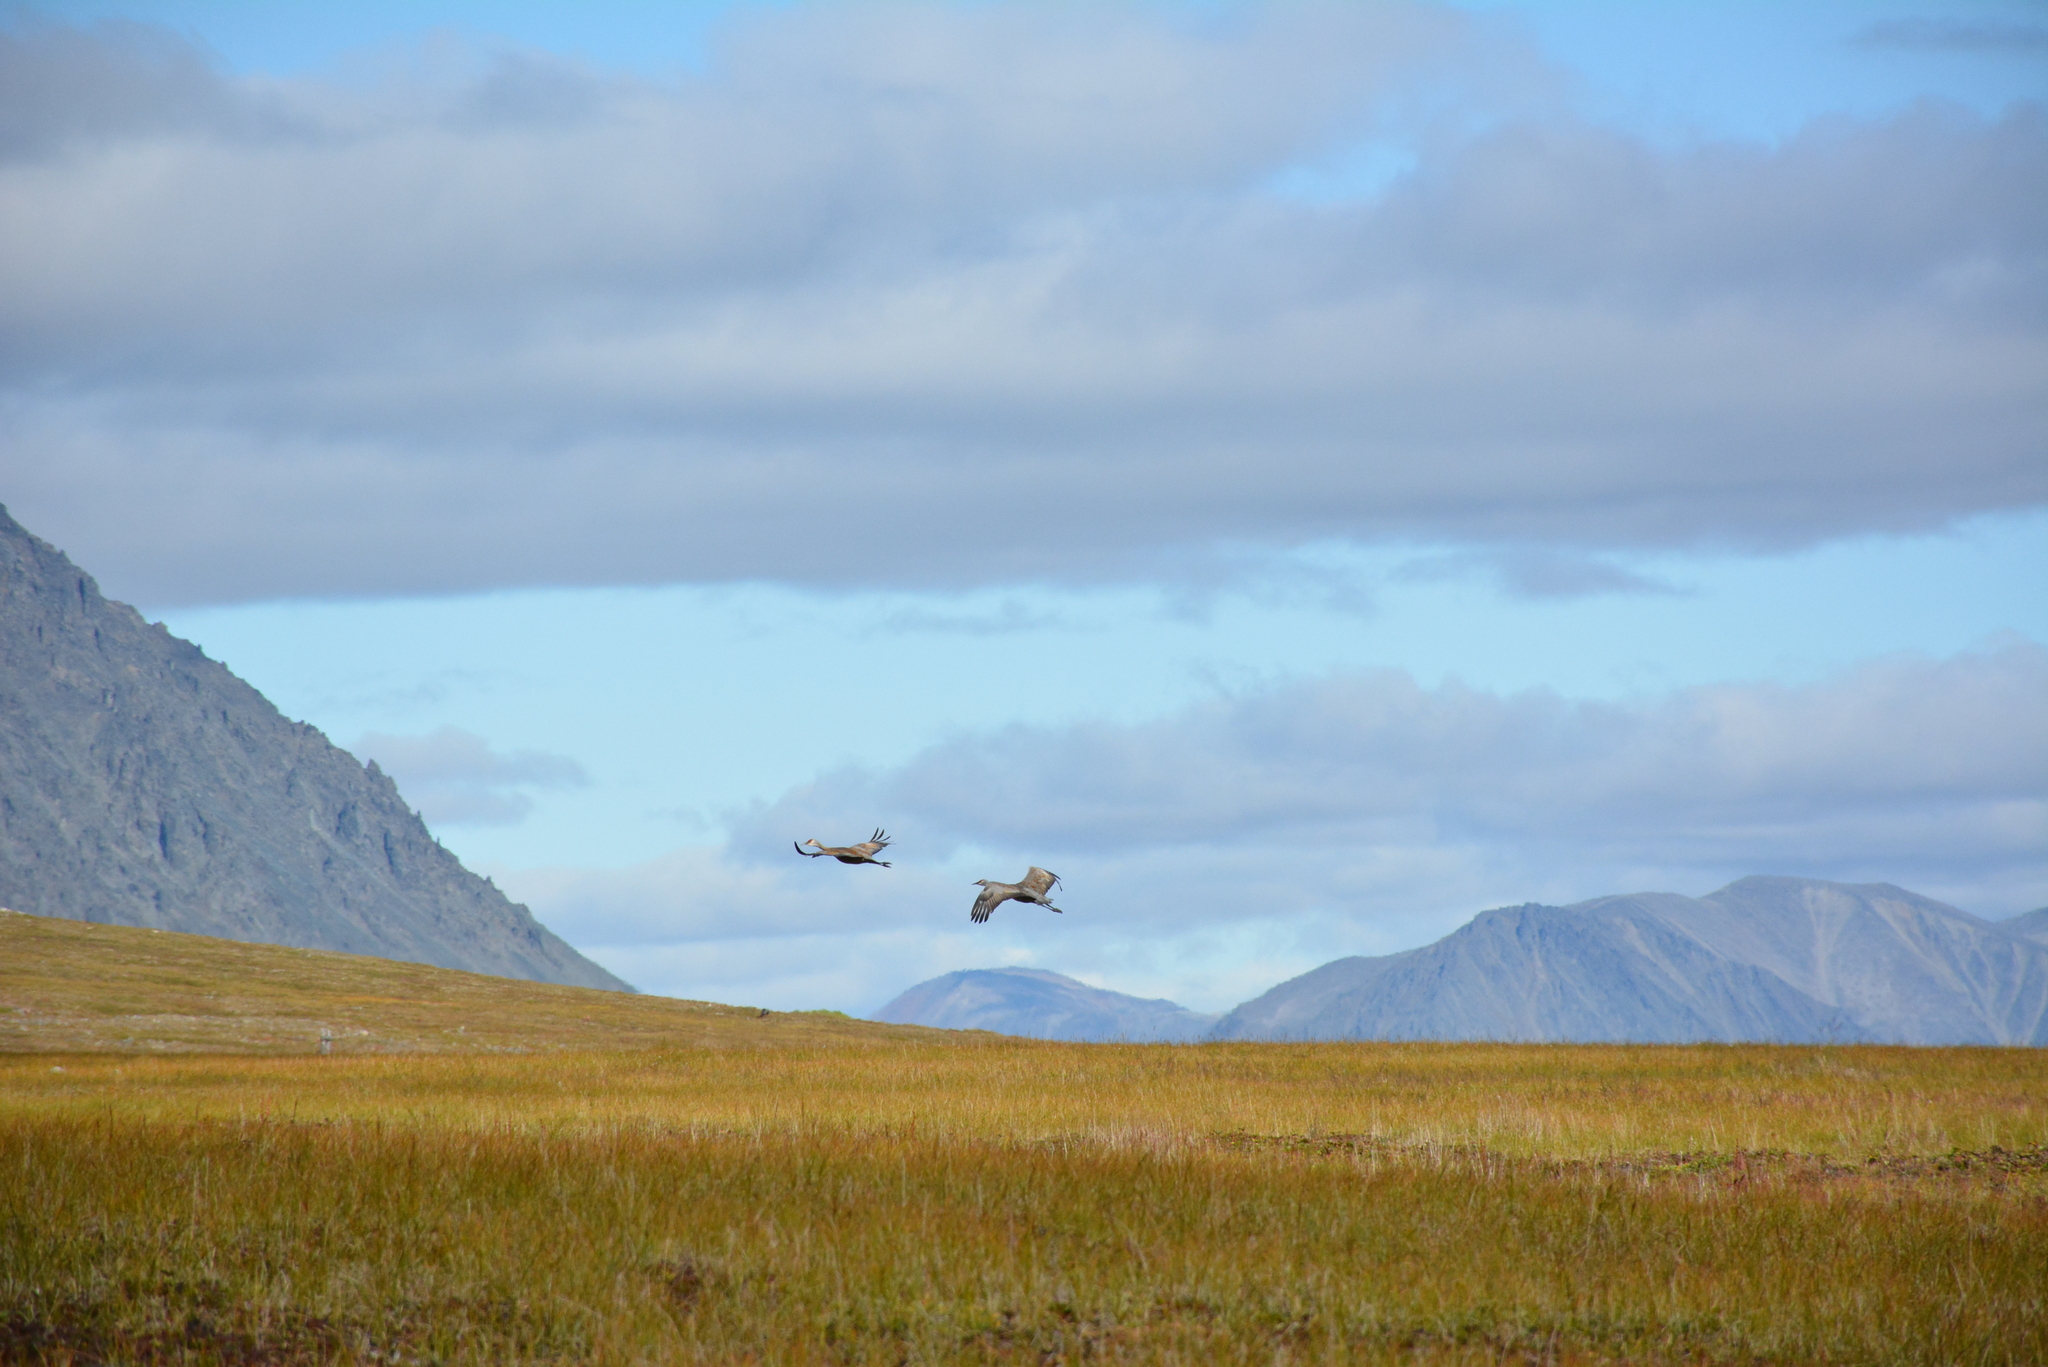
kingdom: Animalia
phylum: Chordata
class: Aves
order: Gruiformes
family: Gruidae
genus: Grus
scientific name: Grus canadensis
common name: Sandhill crane
